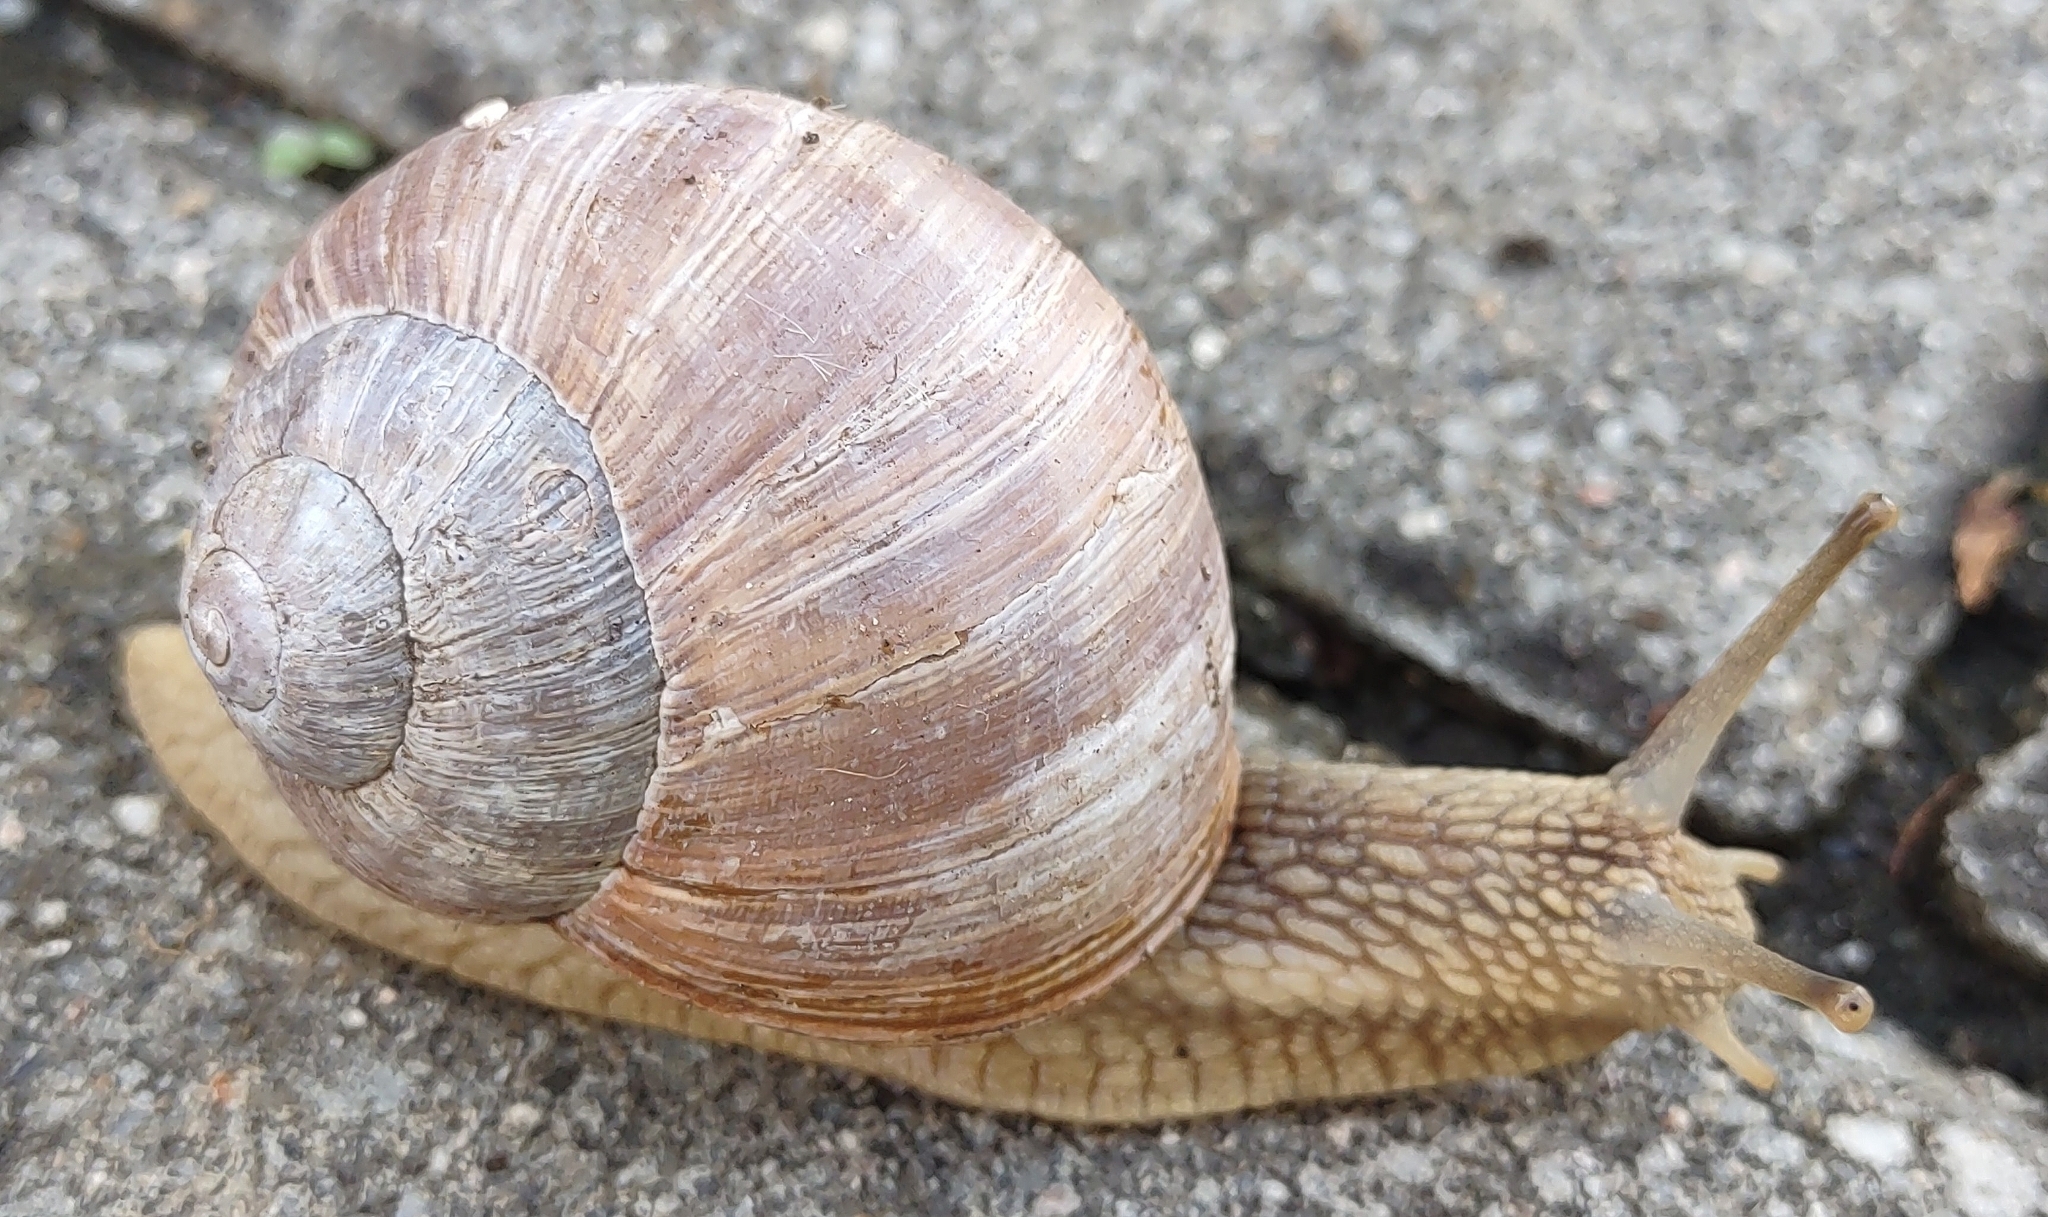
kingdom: Animalia
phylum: Mollusca
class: Gastropoda
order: Stylommatophora
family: Helicidae
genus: Helix
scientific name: Helix pomatia
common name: Roman snail
